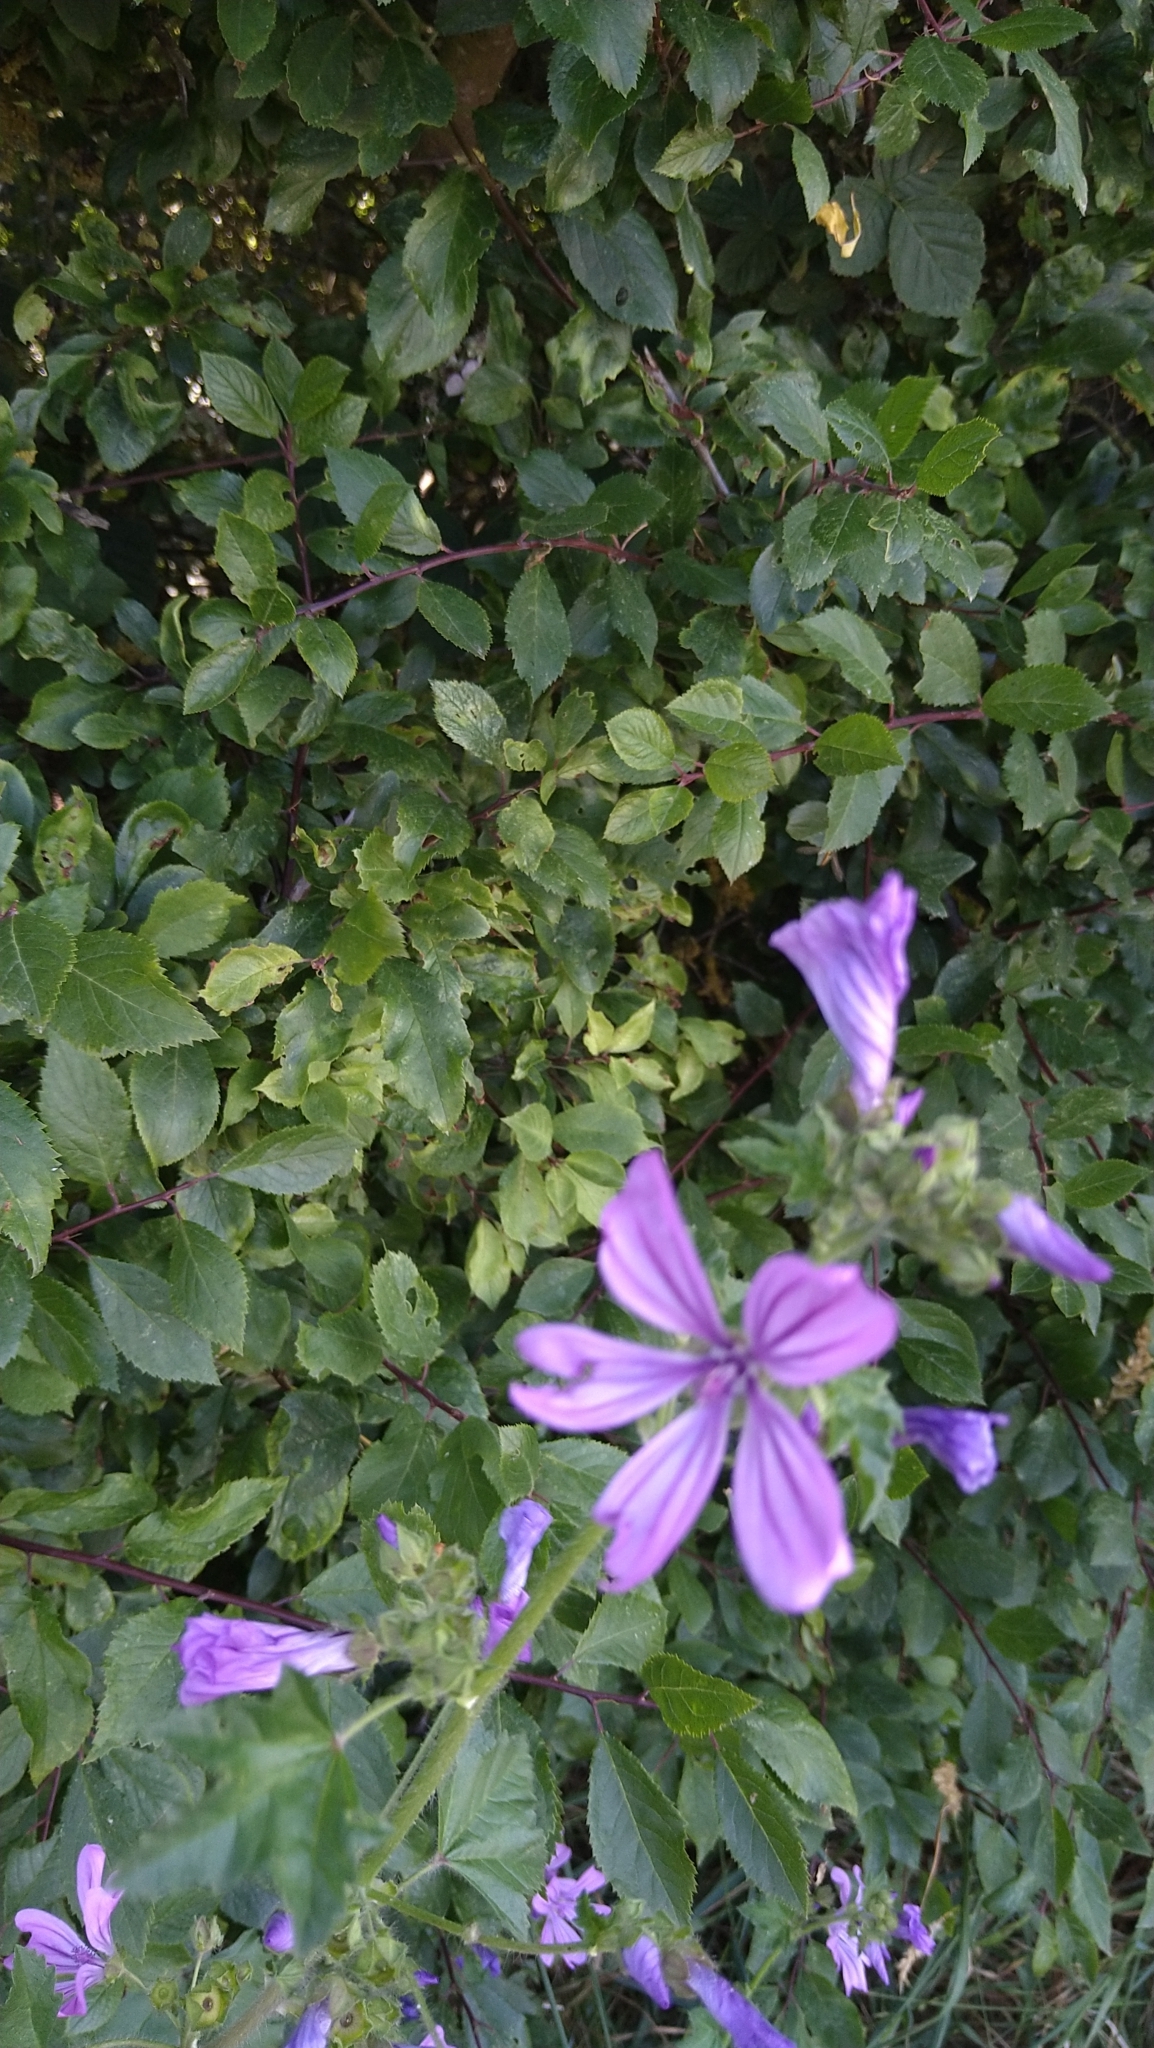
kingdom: Plantae
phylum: Tracheophyta
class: Magnoliopsida
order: Malvales
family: Malvaceae
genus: Malva
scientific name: Malva sylvestris
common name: Common mallow
